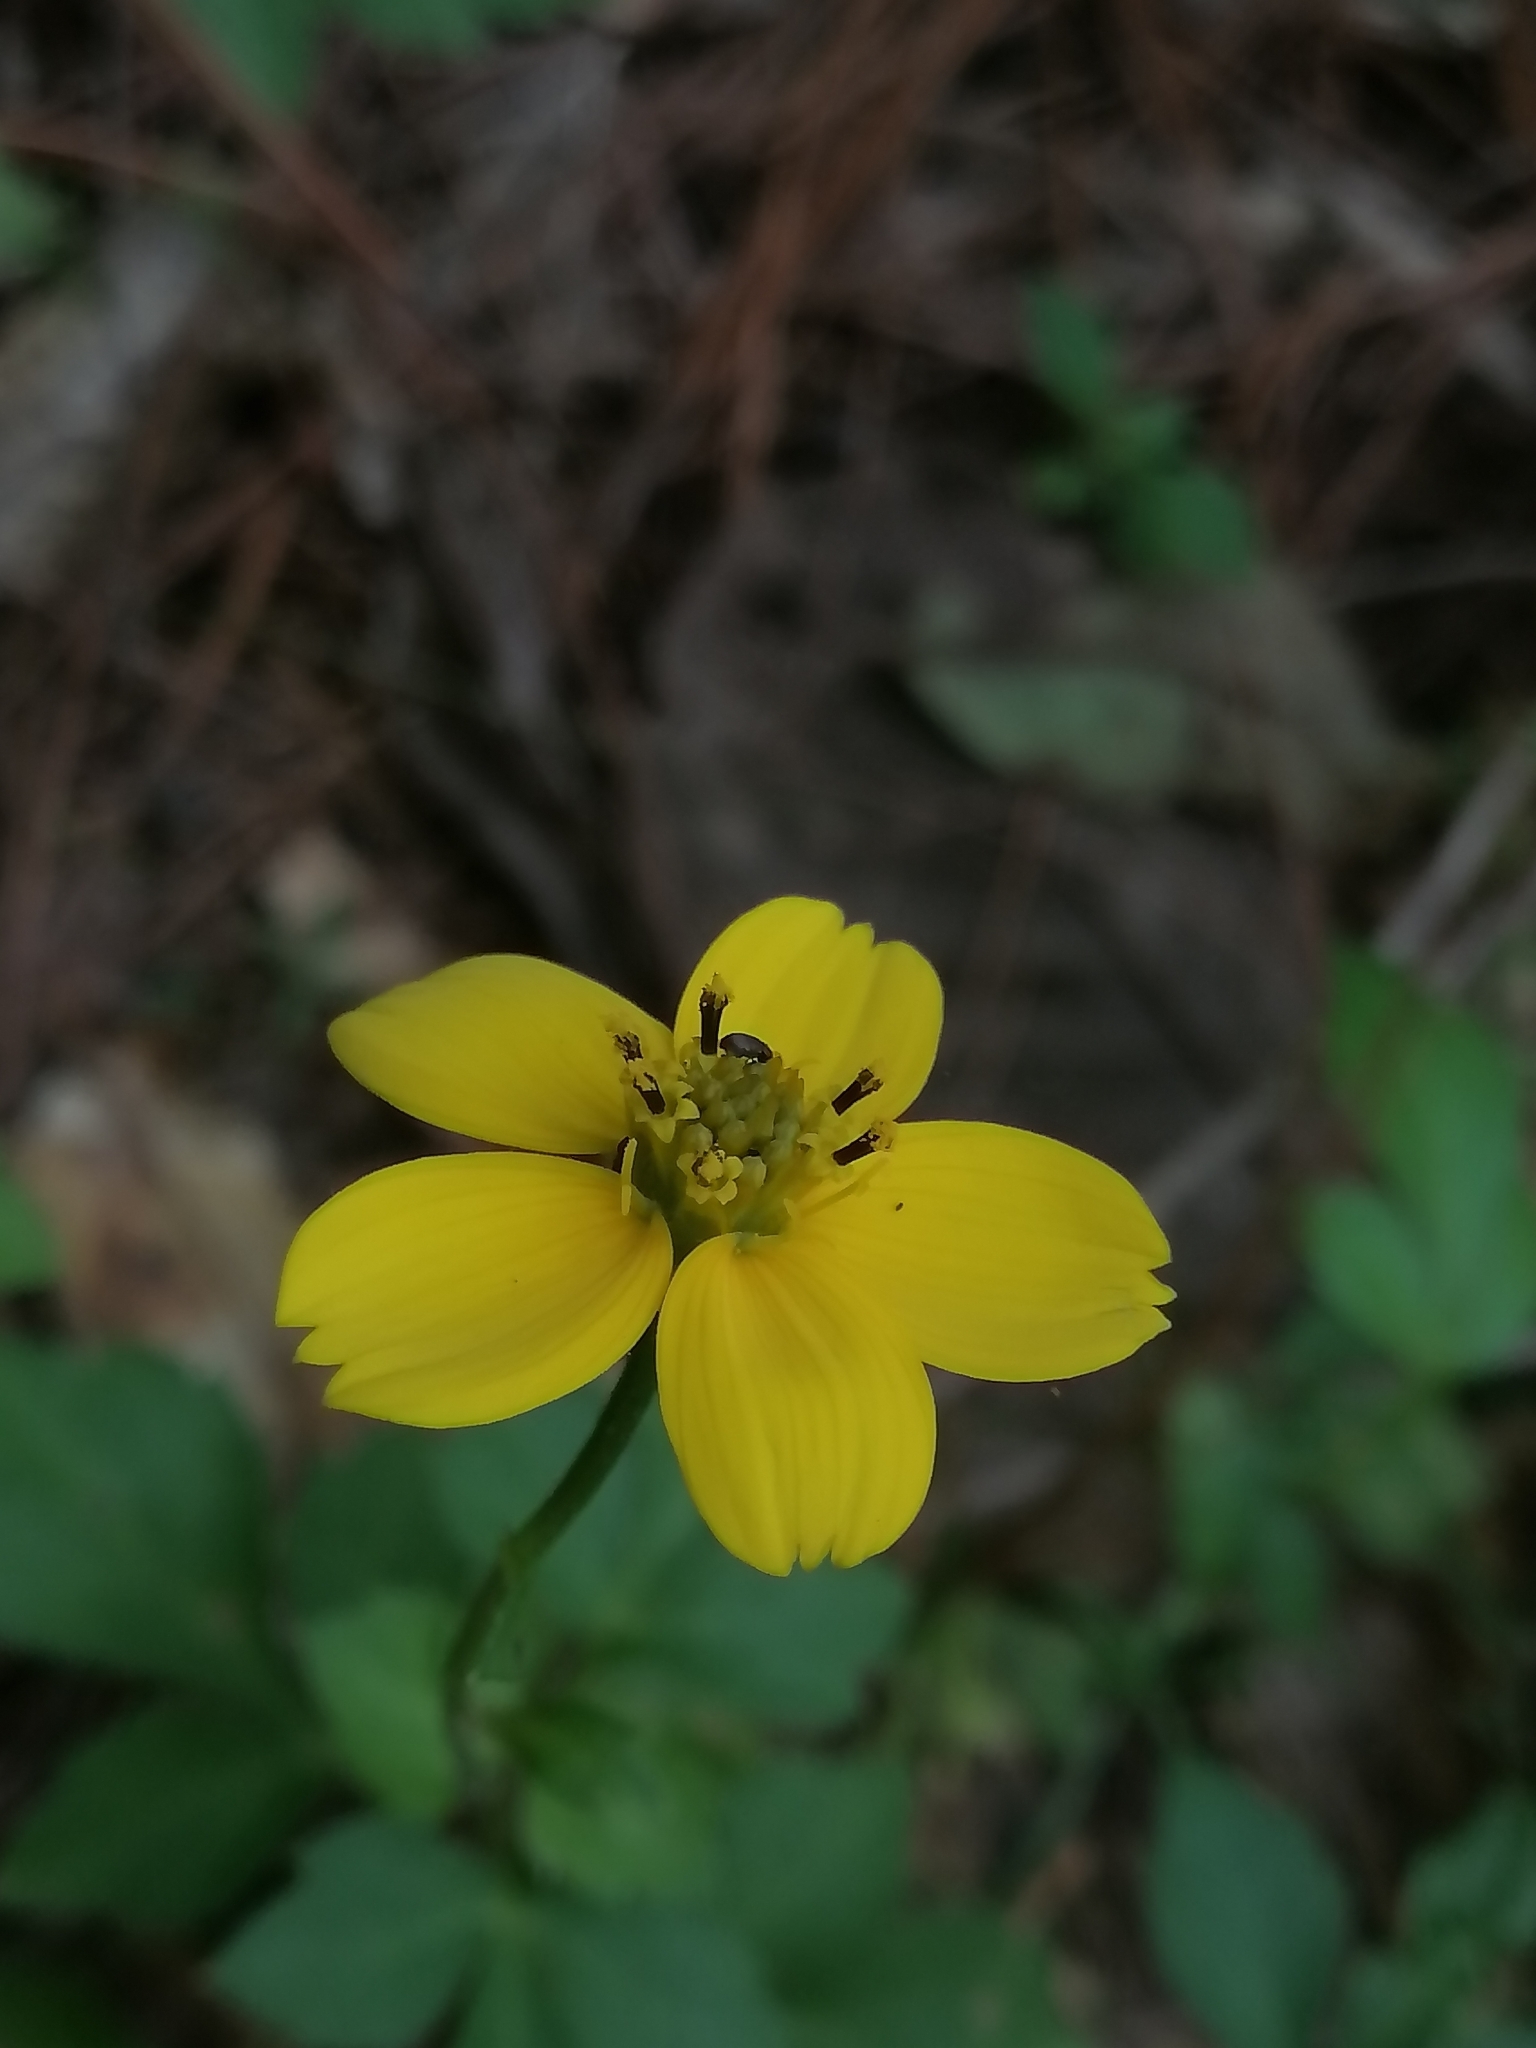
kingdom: Plantae
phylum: Tracheophyta
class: Magnoliopsida
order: Asterales
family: Asteraceae
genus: Bidens
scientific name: Bidens ostruthioides
